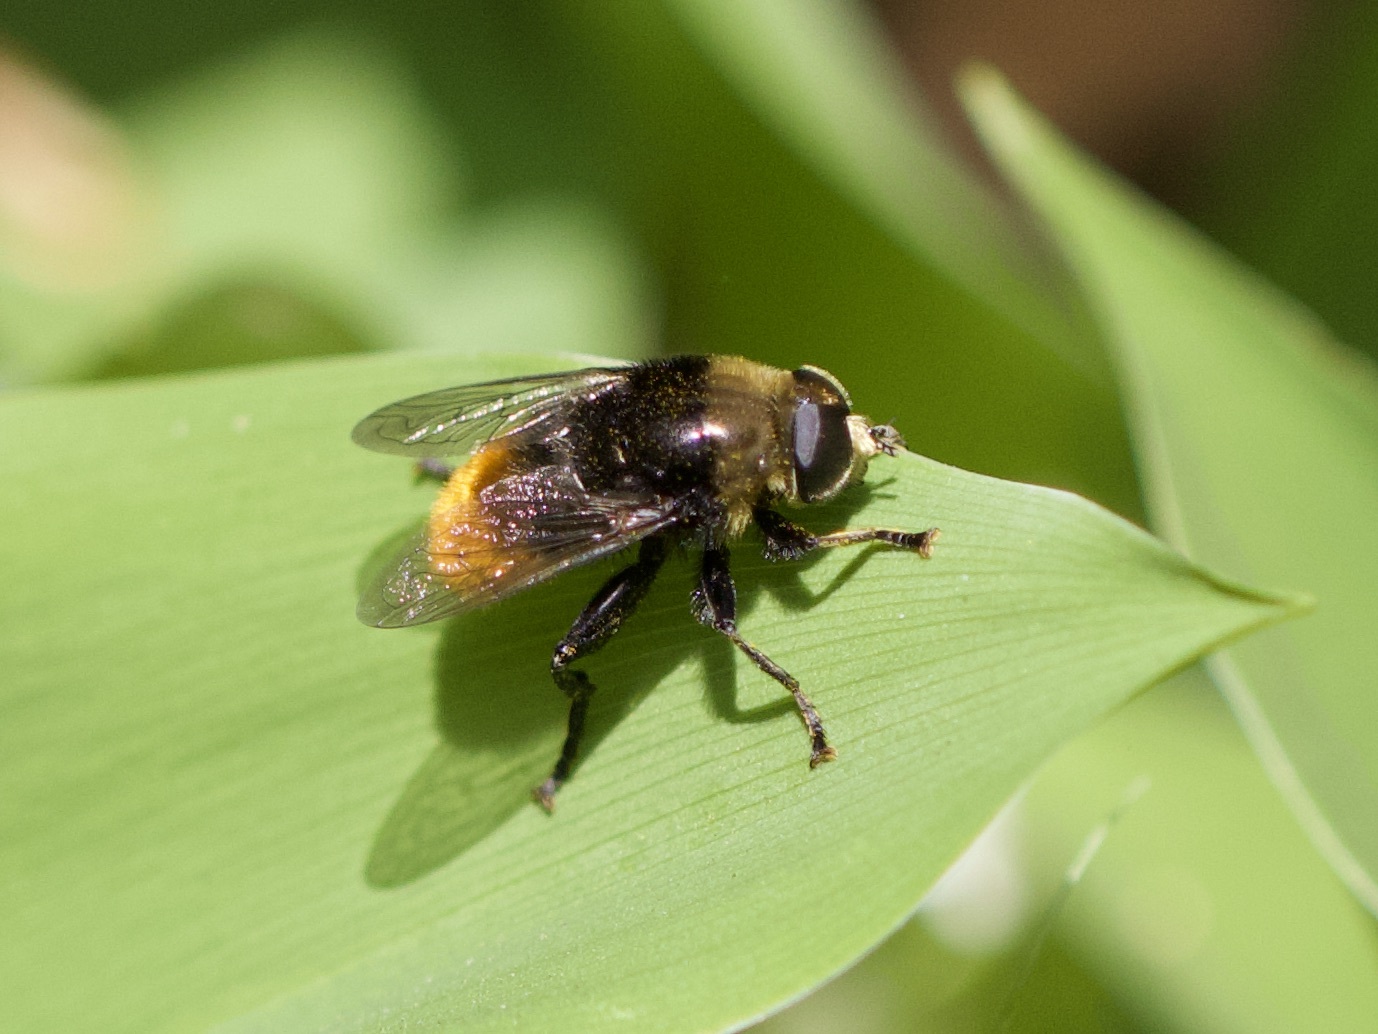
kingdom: Animalia
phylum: Arthropoda
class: Insecta
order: Diptera
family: Syrphidae
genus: Merodon
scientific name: Merodon equestris
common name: Greater bulb-fly
